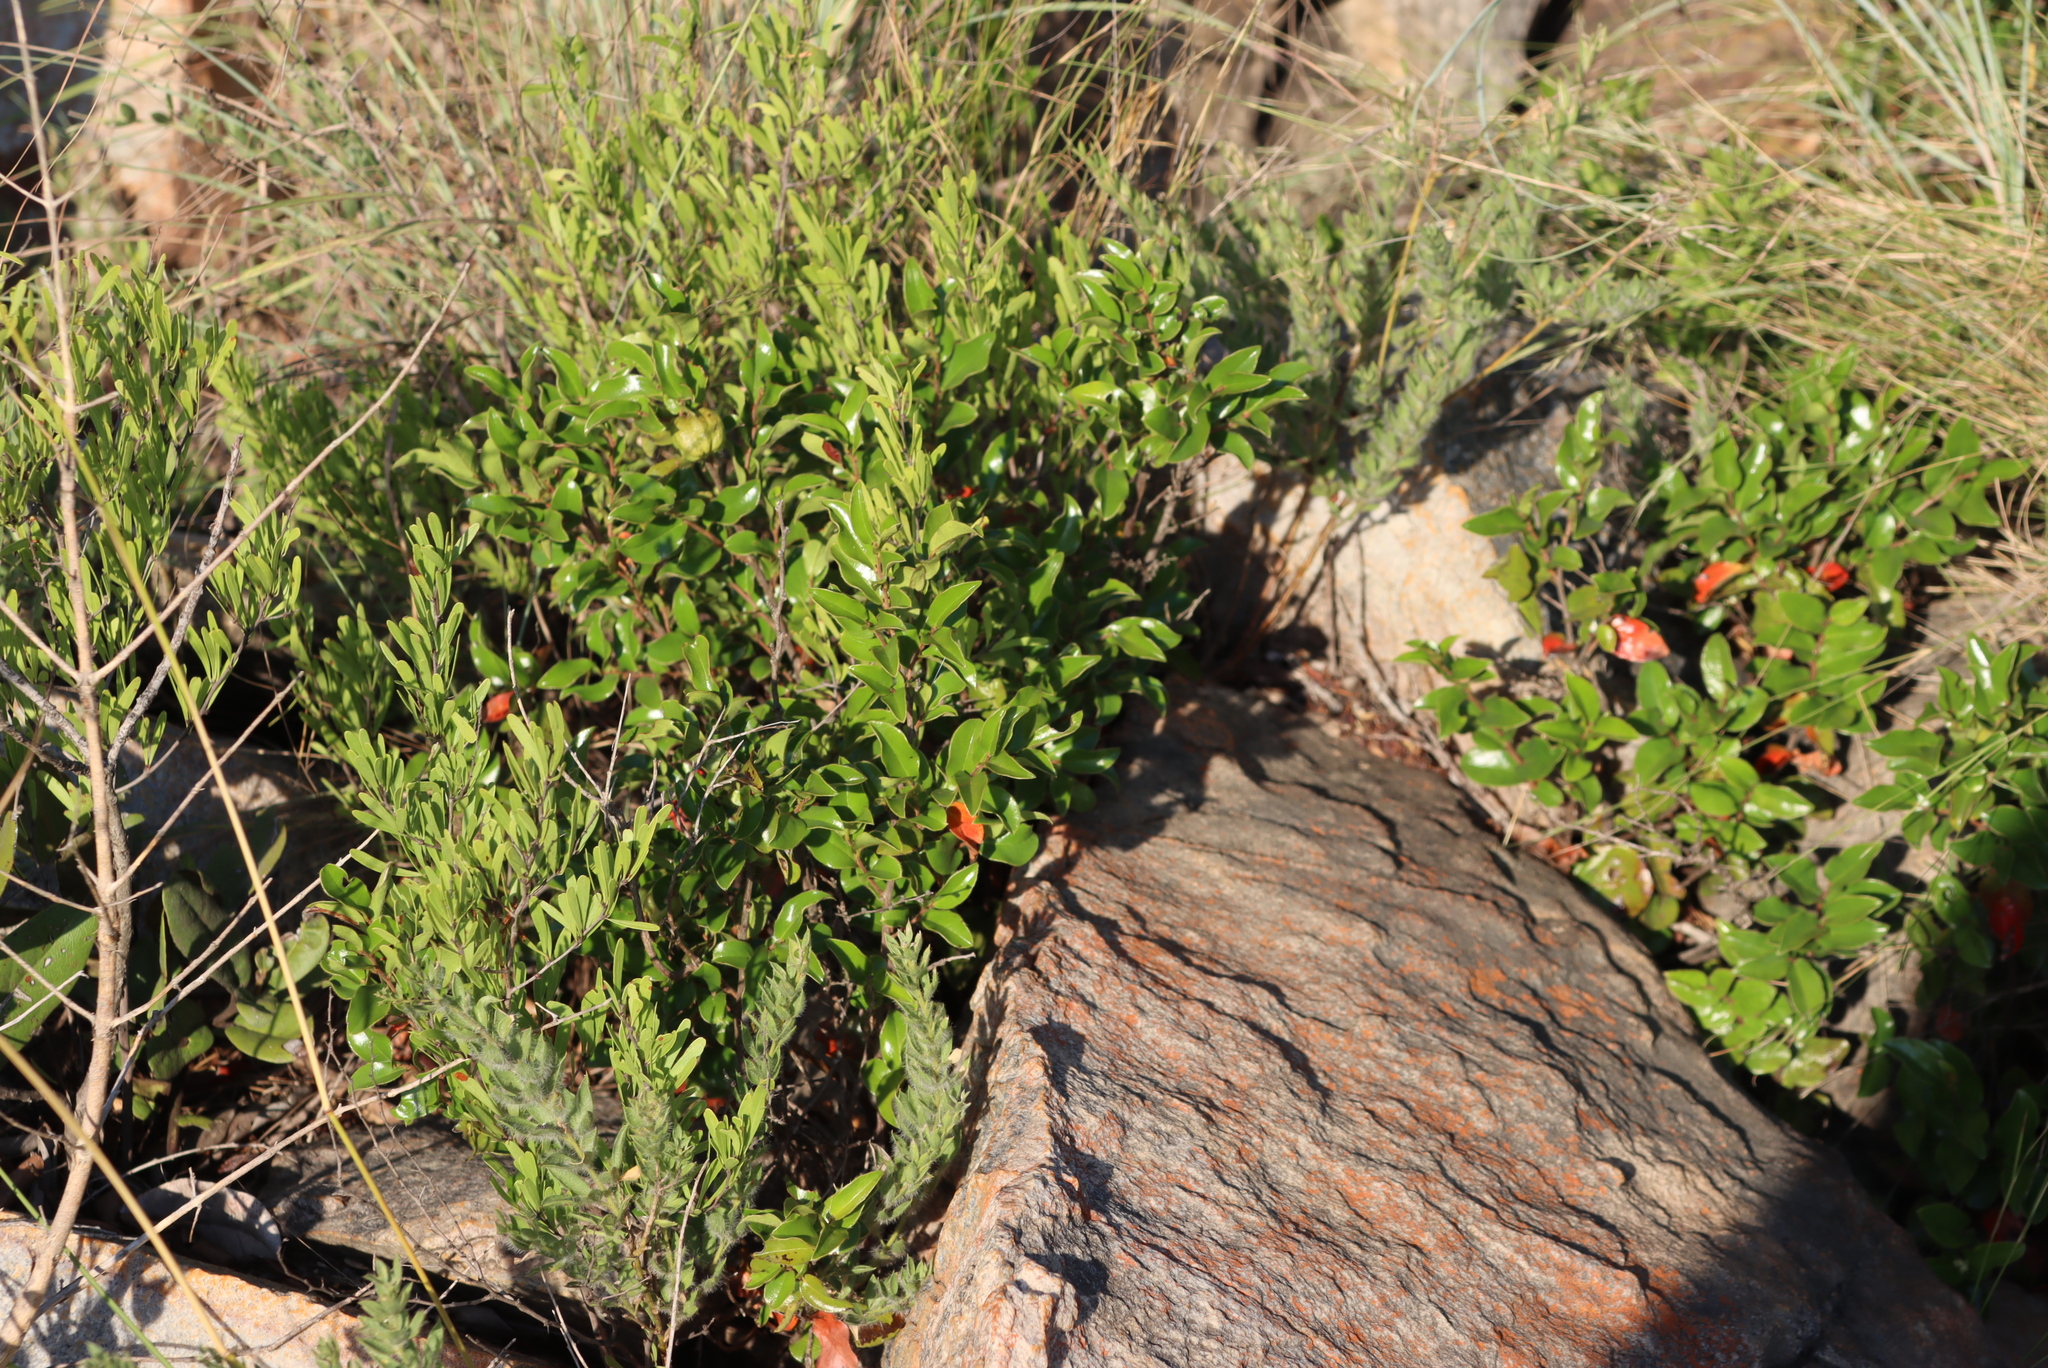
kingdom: Plantae
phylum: Tracheophyta
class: Magnoliopsida
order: Ericales
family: Ebenaceae
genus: Diospyros
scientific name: Diospyros whyteana
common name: Bladder-nut
